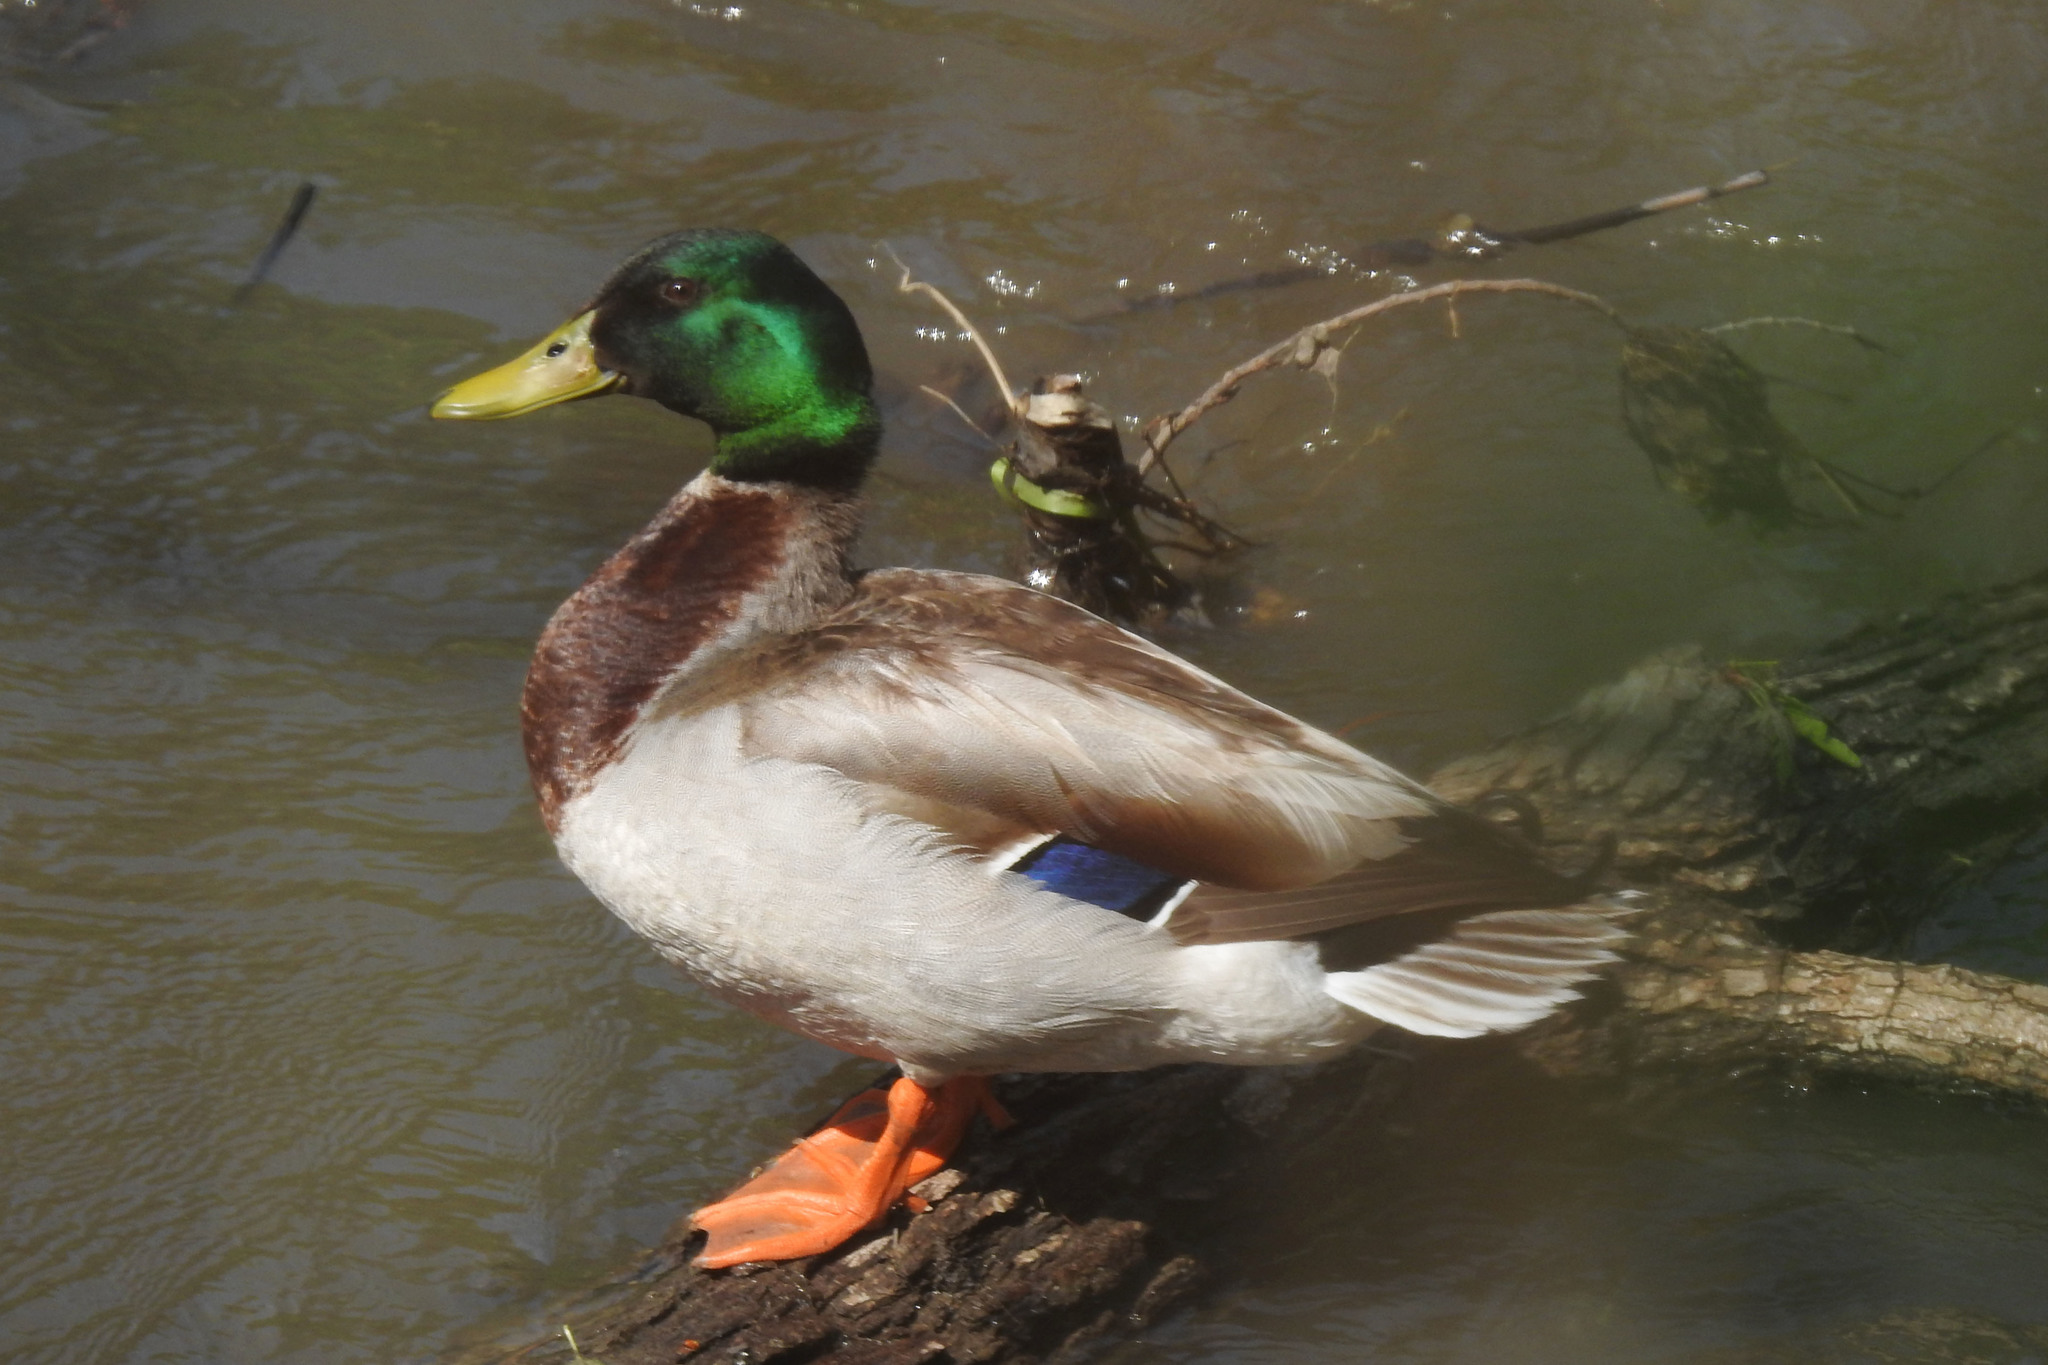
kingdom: Animalia
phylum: Chordata
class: Aves
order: Anseriformes
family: Anatidae
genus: Anas
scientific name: Anas platyrhynchos
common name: Mallard
